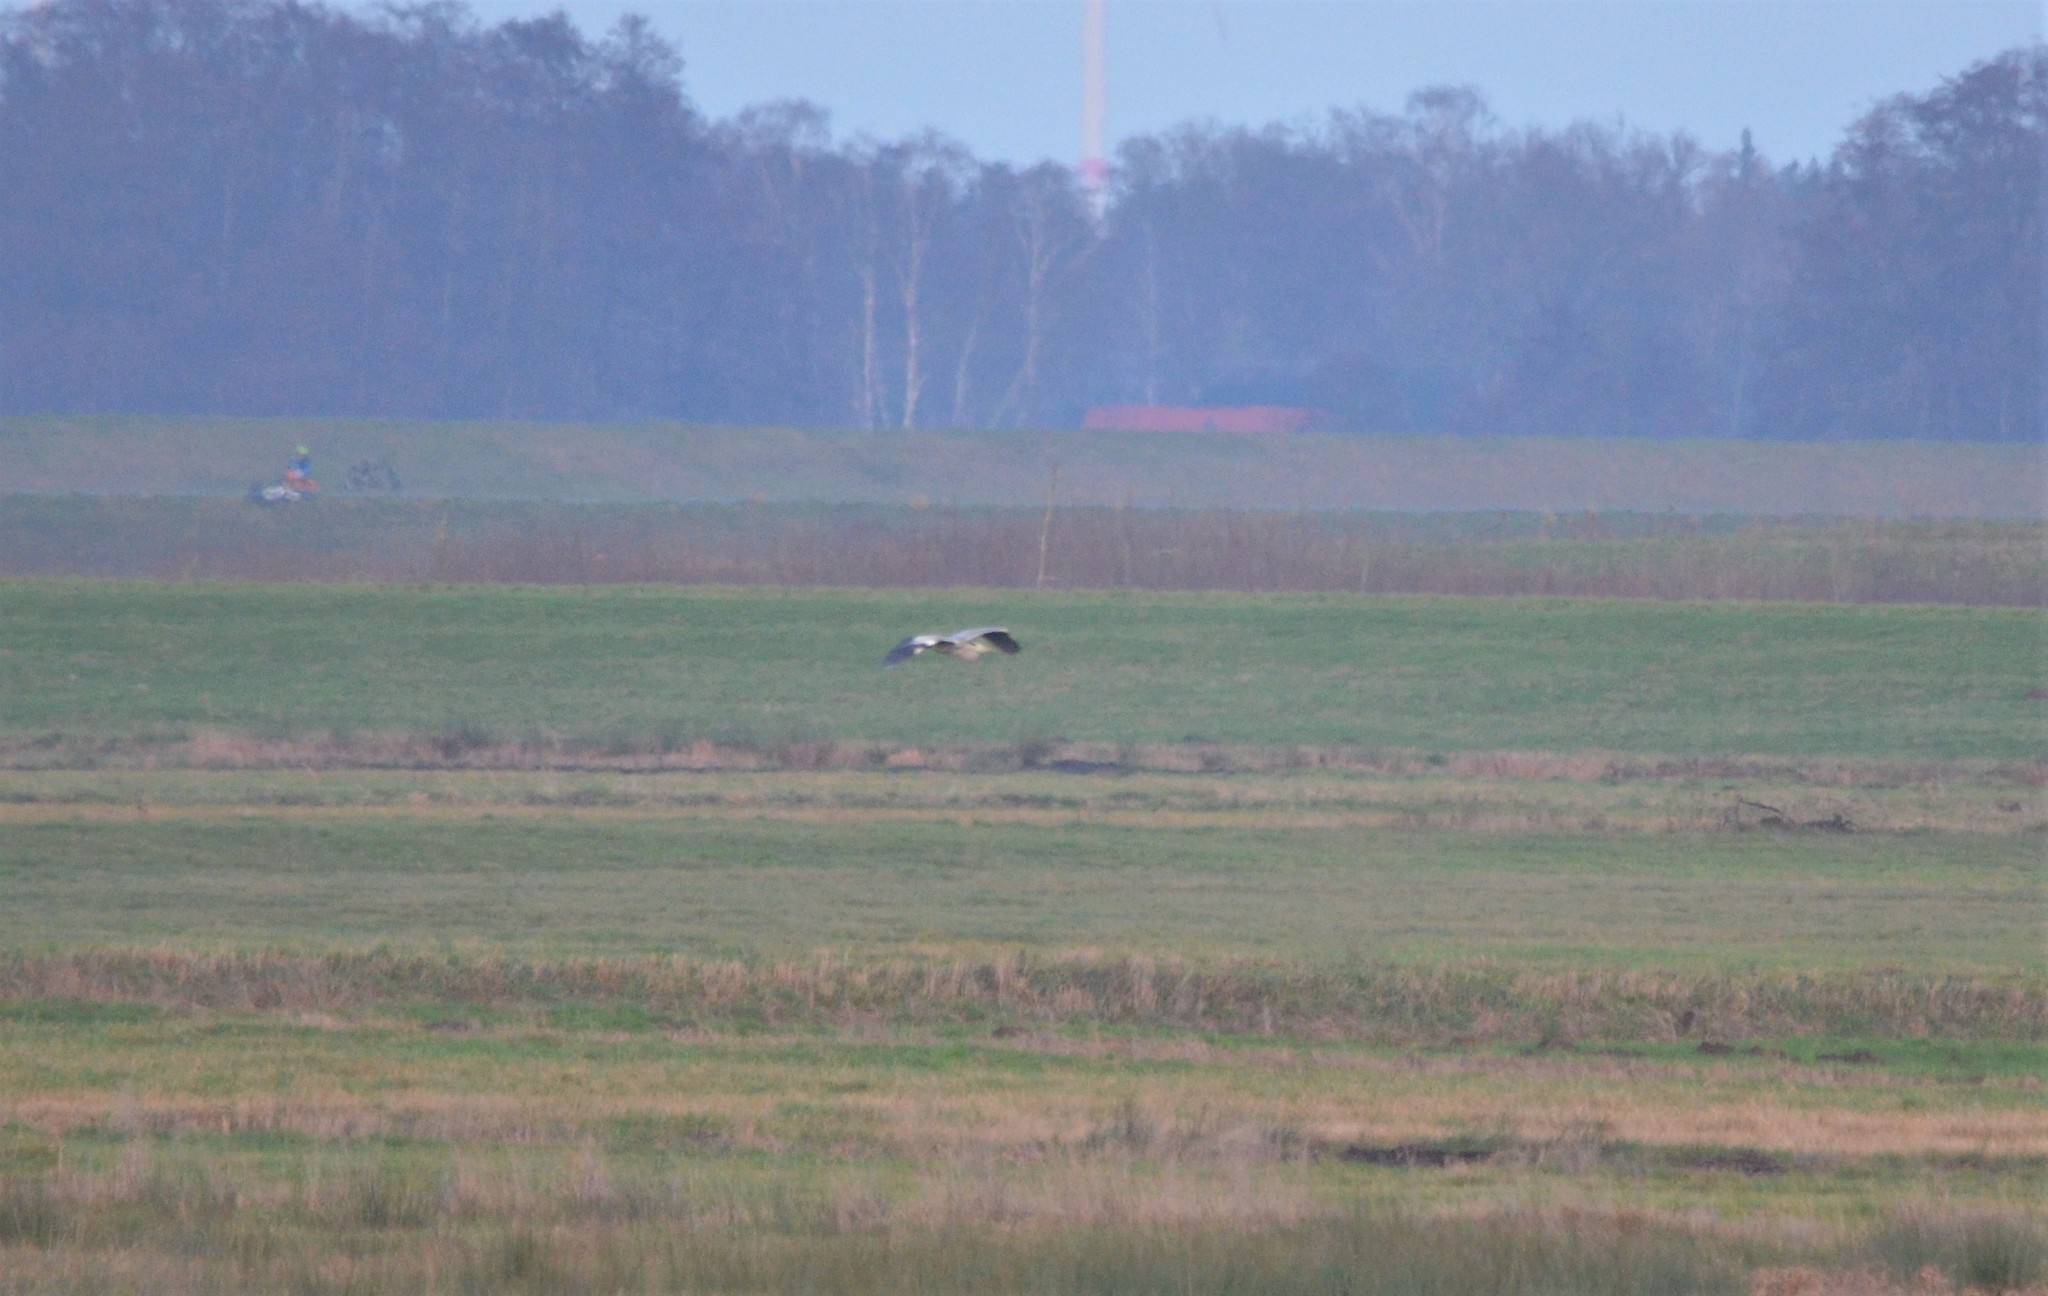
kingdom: Animalia
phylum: Chordata
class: Aves
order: Pelecaniformes
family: Ardeidae
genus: Ardea
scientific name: Ardea cinerea
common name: Grey heron
